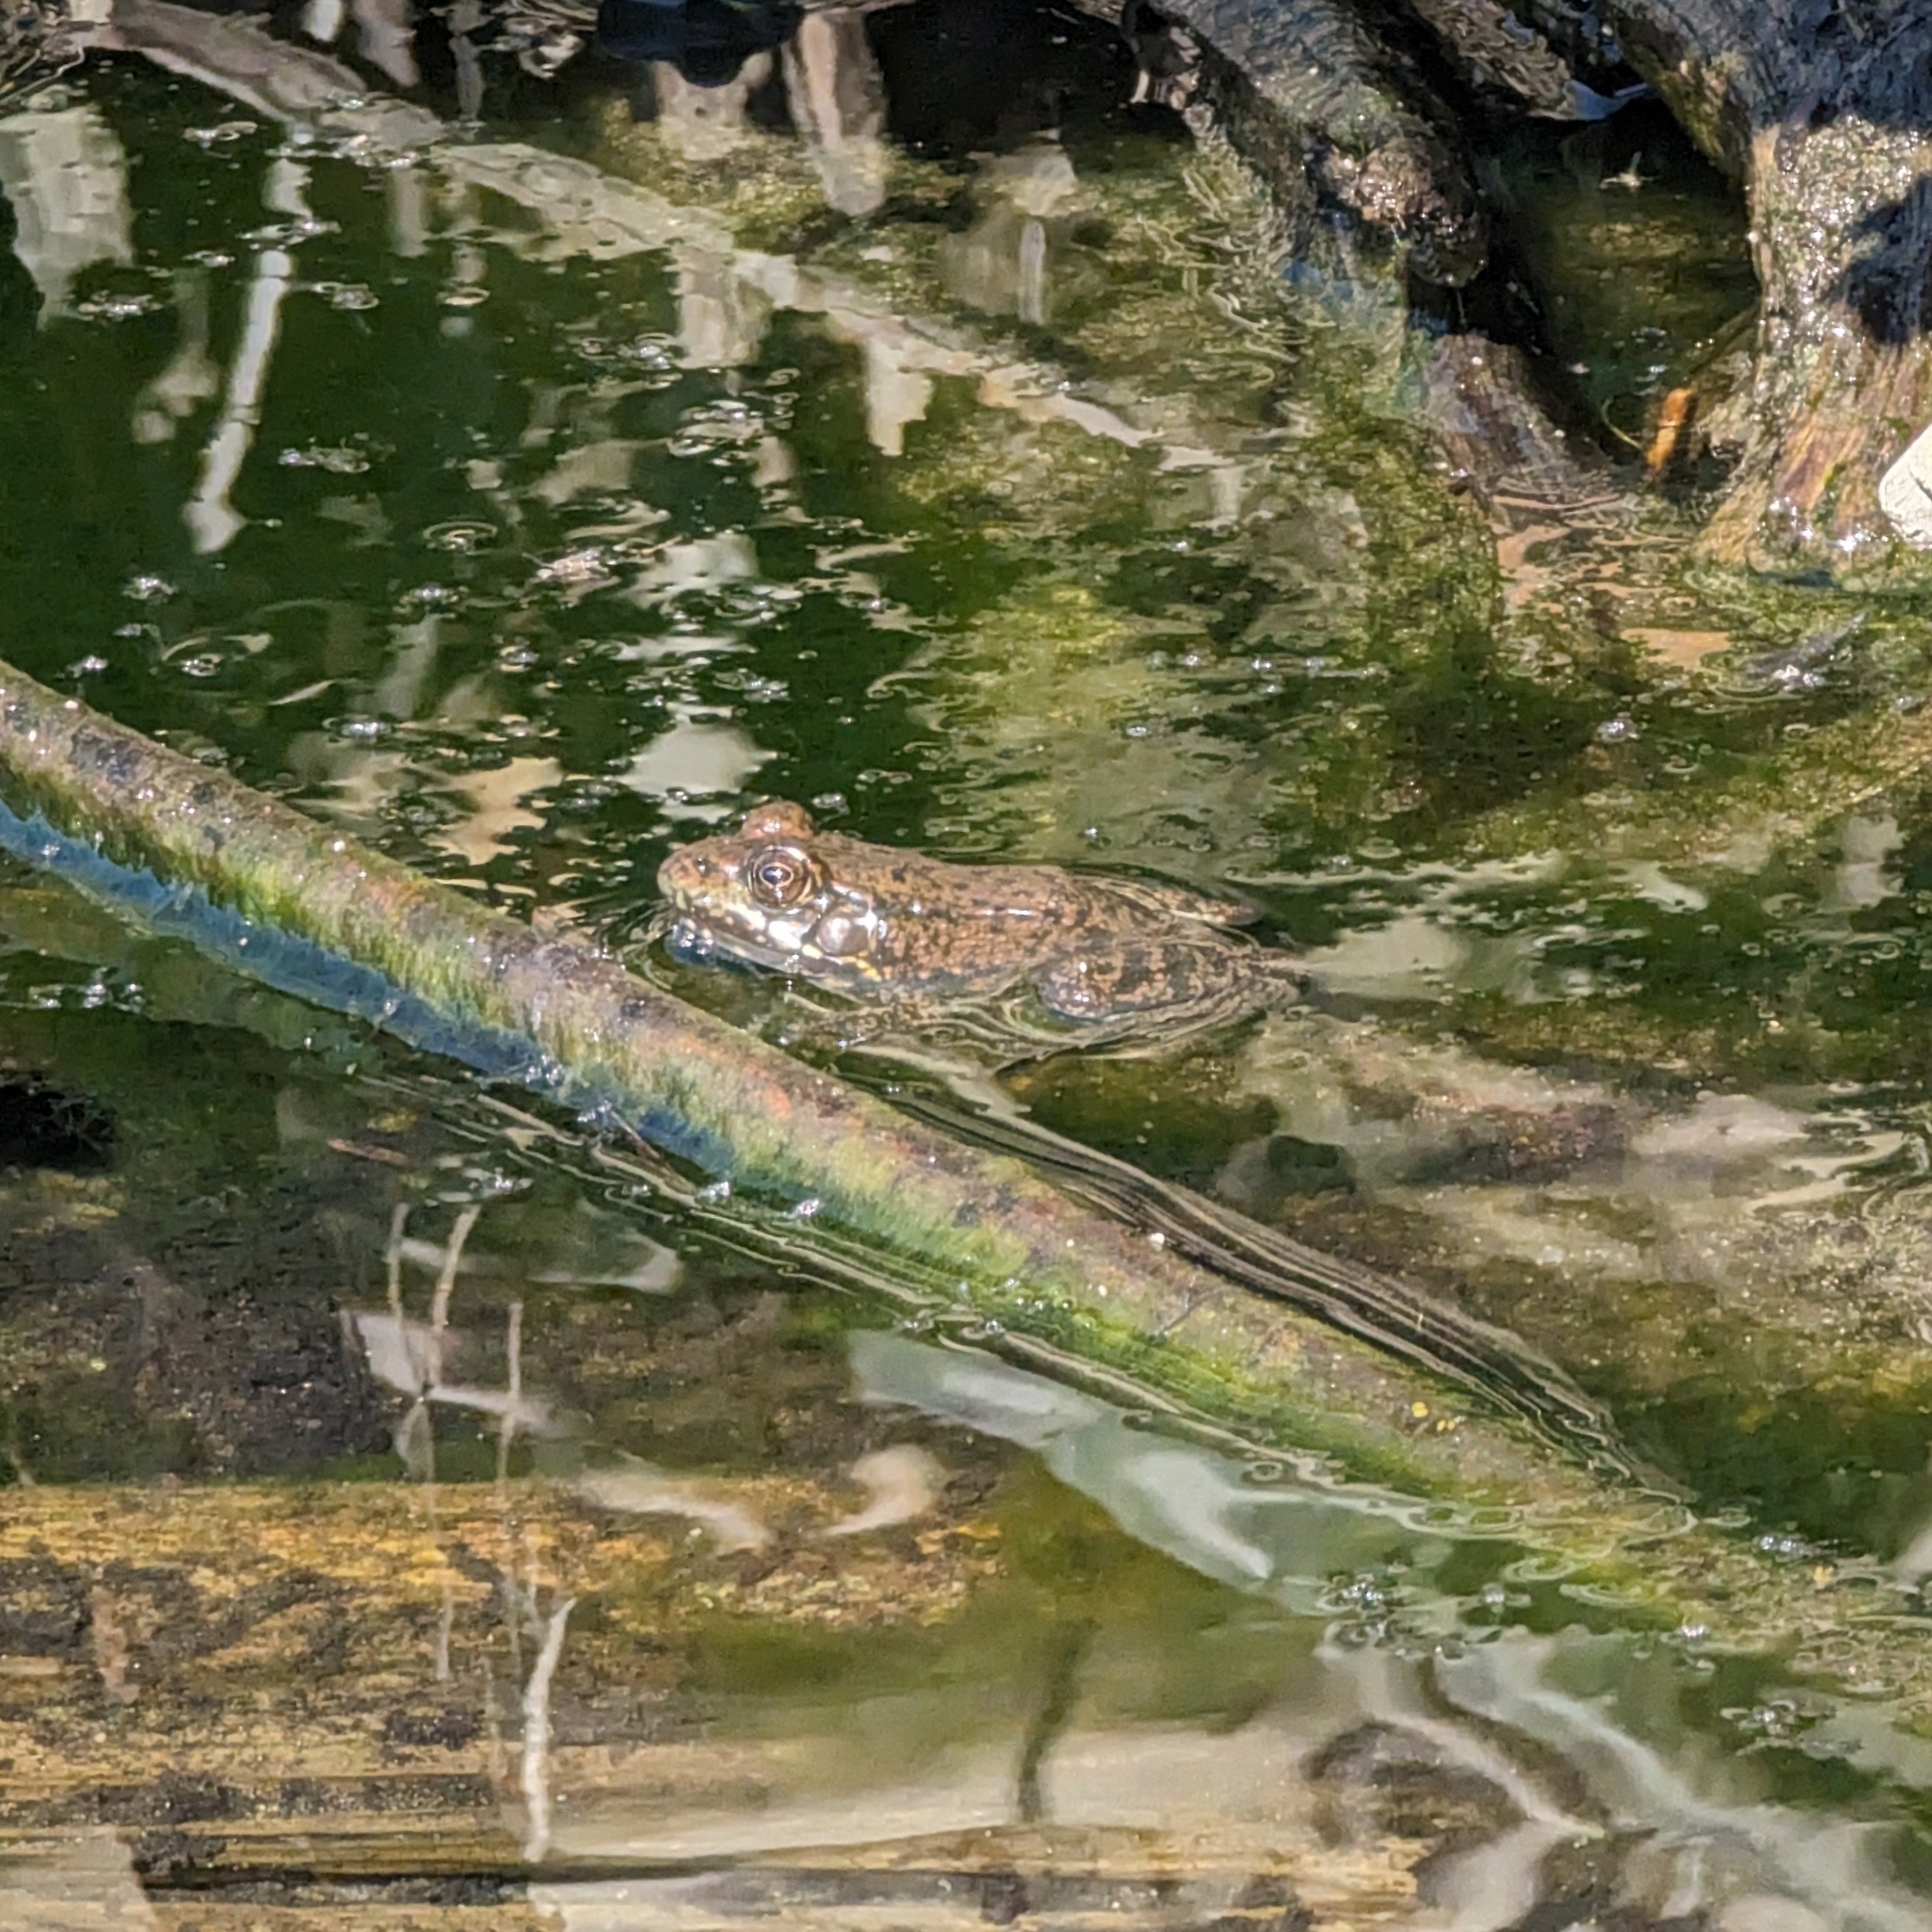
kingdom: Animalia
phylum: Chordata
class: Amphibia
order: Anura
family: Ranidae
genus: Lithobates
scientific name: Lithobates clamitans
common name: Green frog
